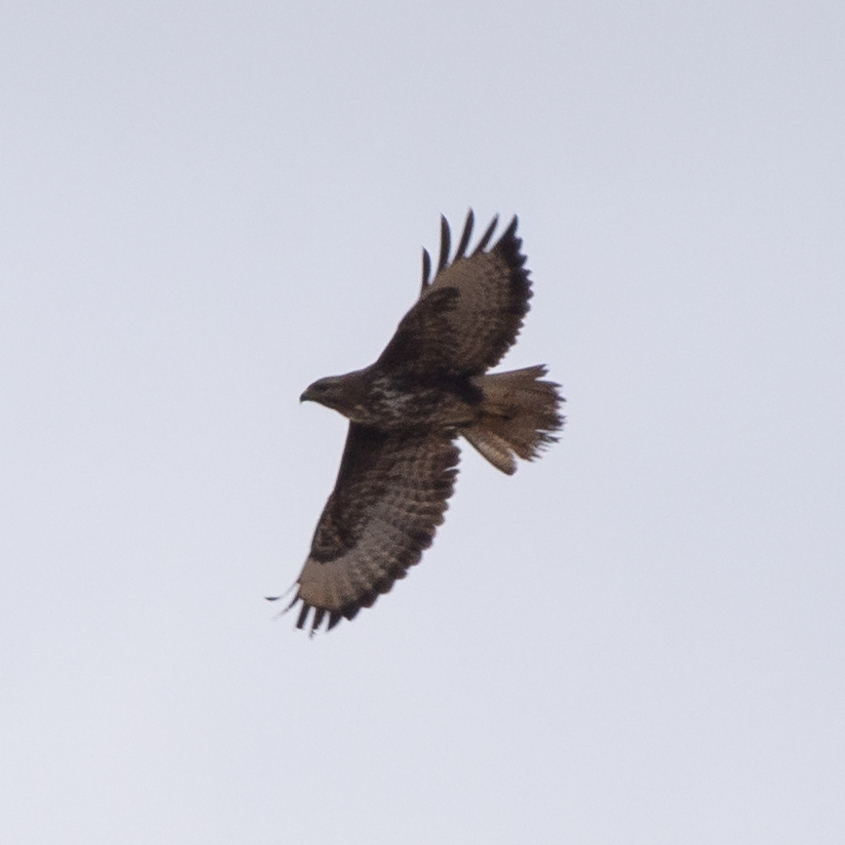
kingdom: Animalia
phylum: Chordata
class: Aves
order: Accipitriformes
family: Accipitridae
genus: Buteo
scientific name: Buteo buteo
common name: Common buzzard
